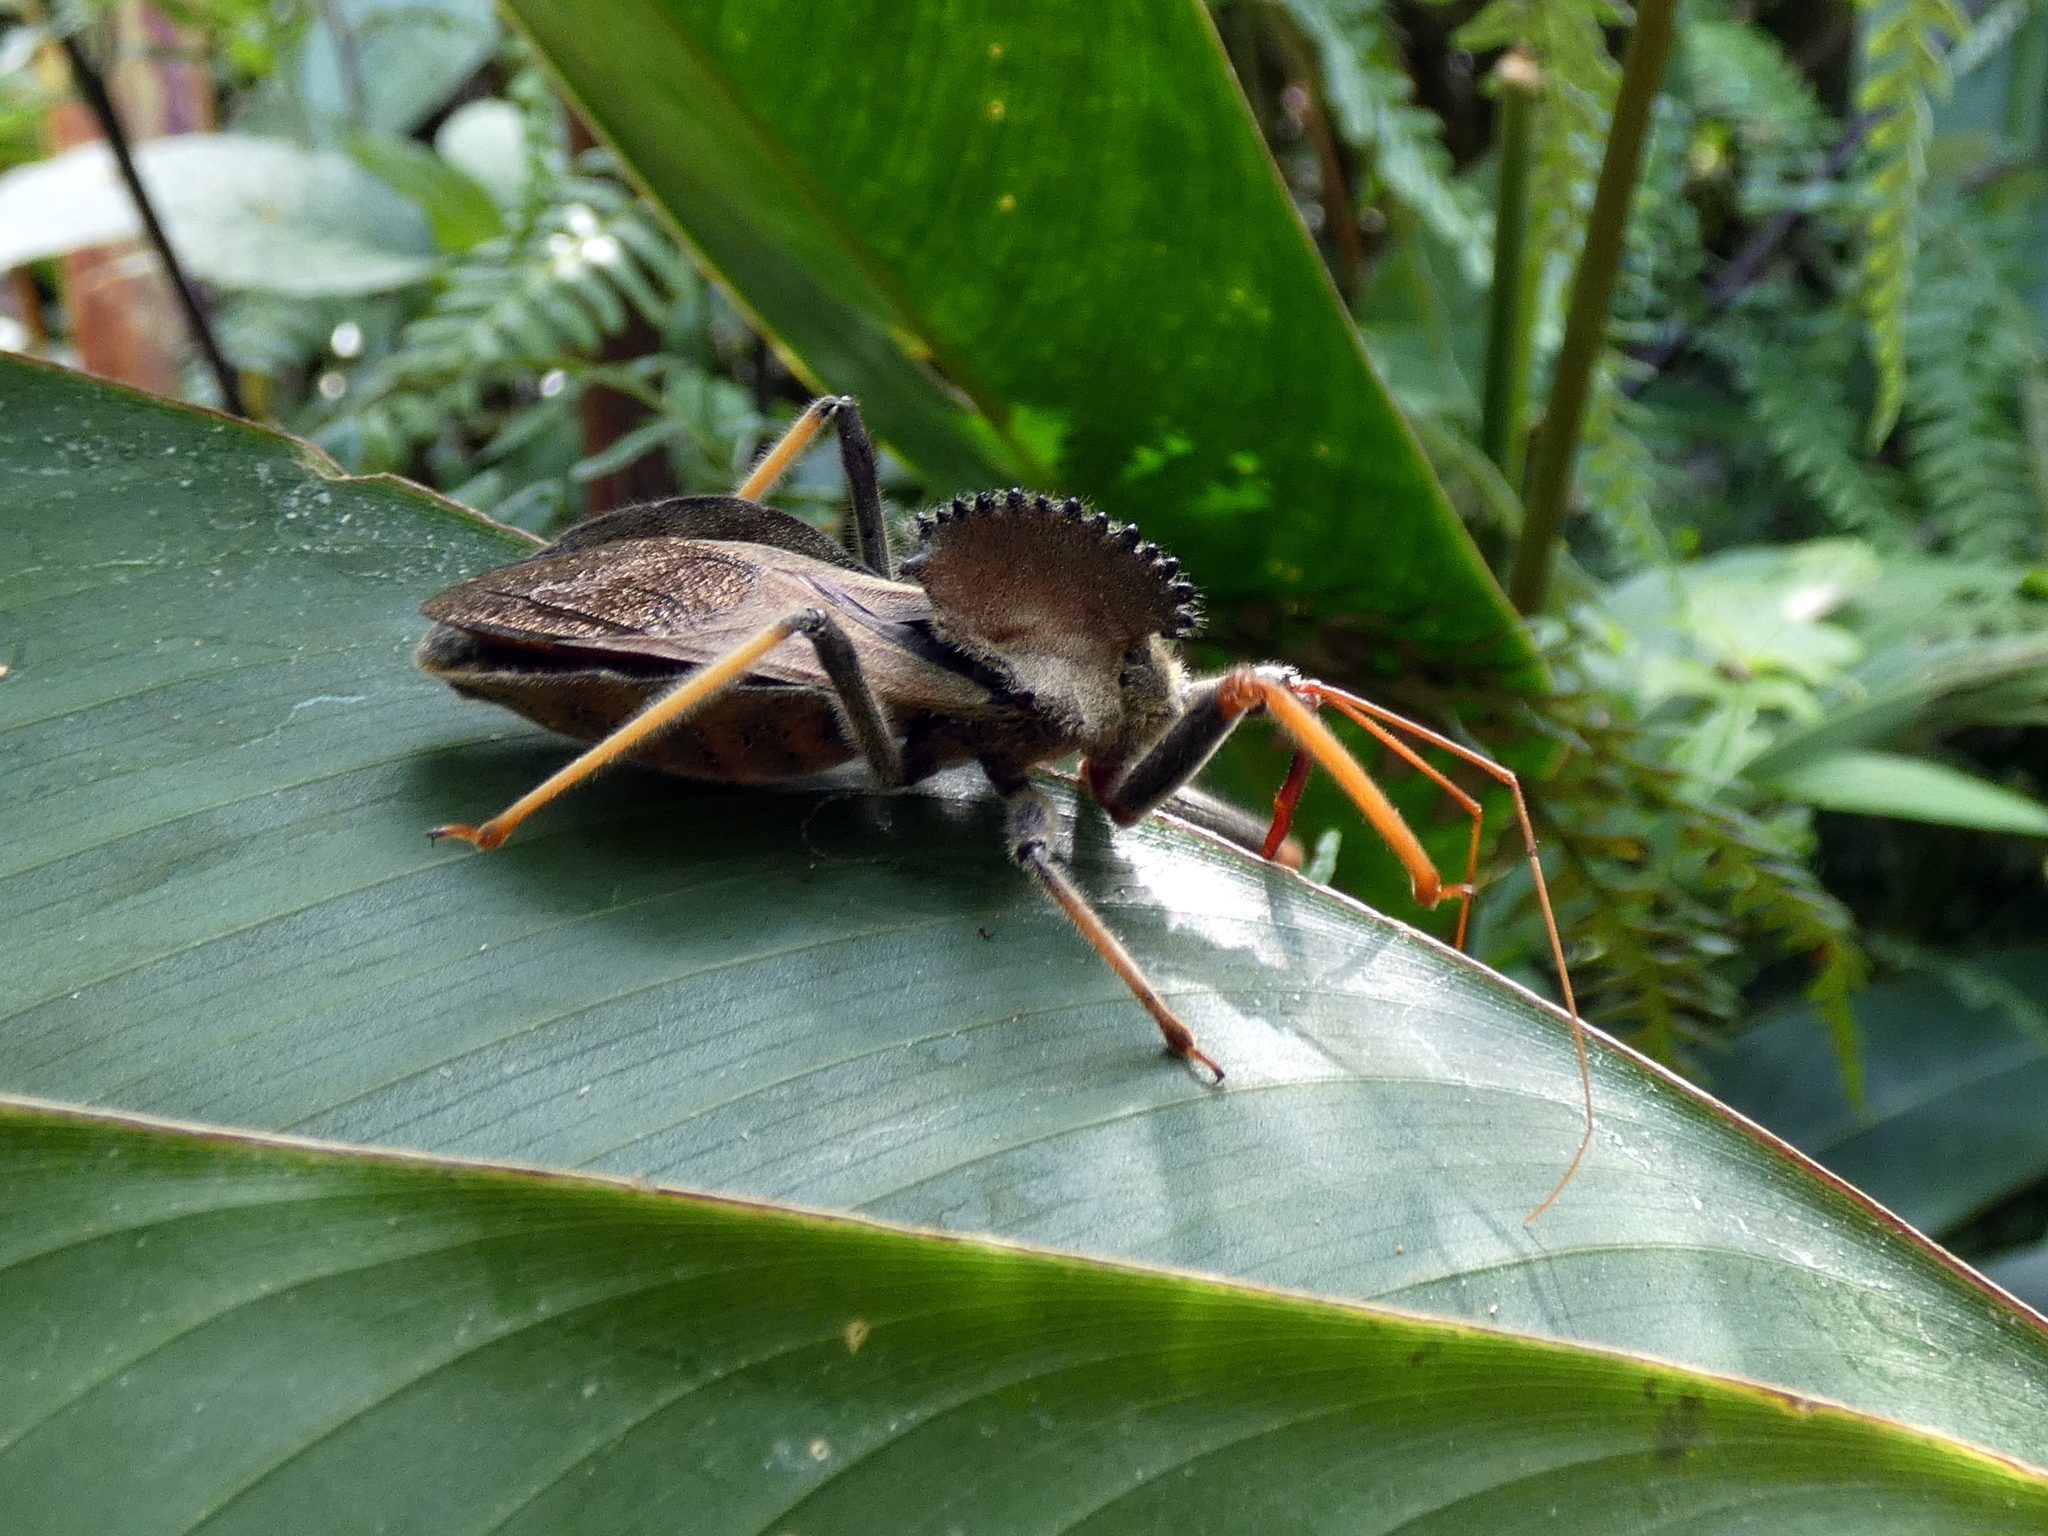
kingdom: Animalia
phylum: Arthropoda
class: Insecta
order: Hemiptera
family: Reduviidae
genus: Arilus
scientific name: Arilus carinatus
